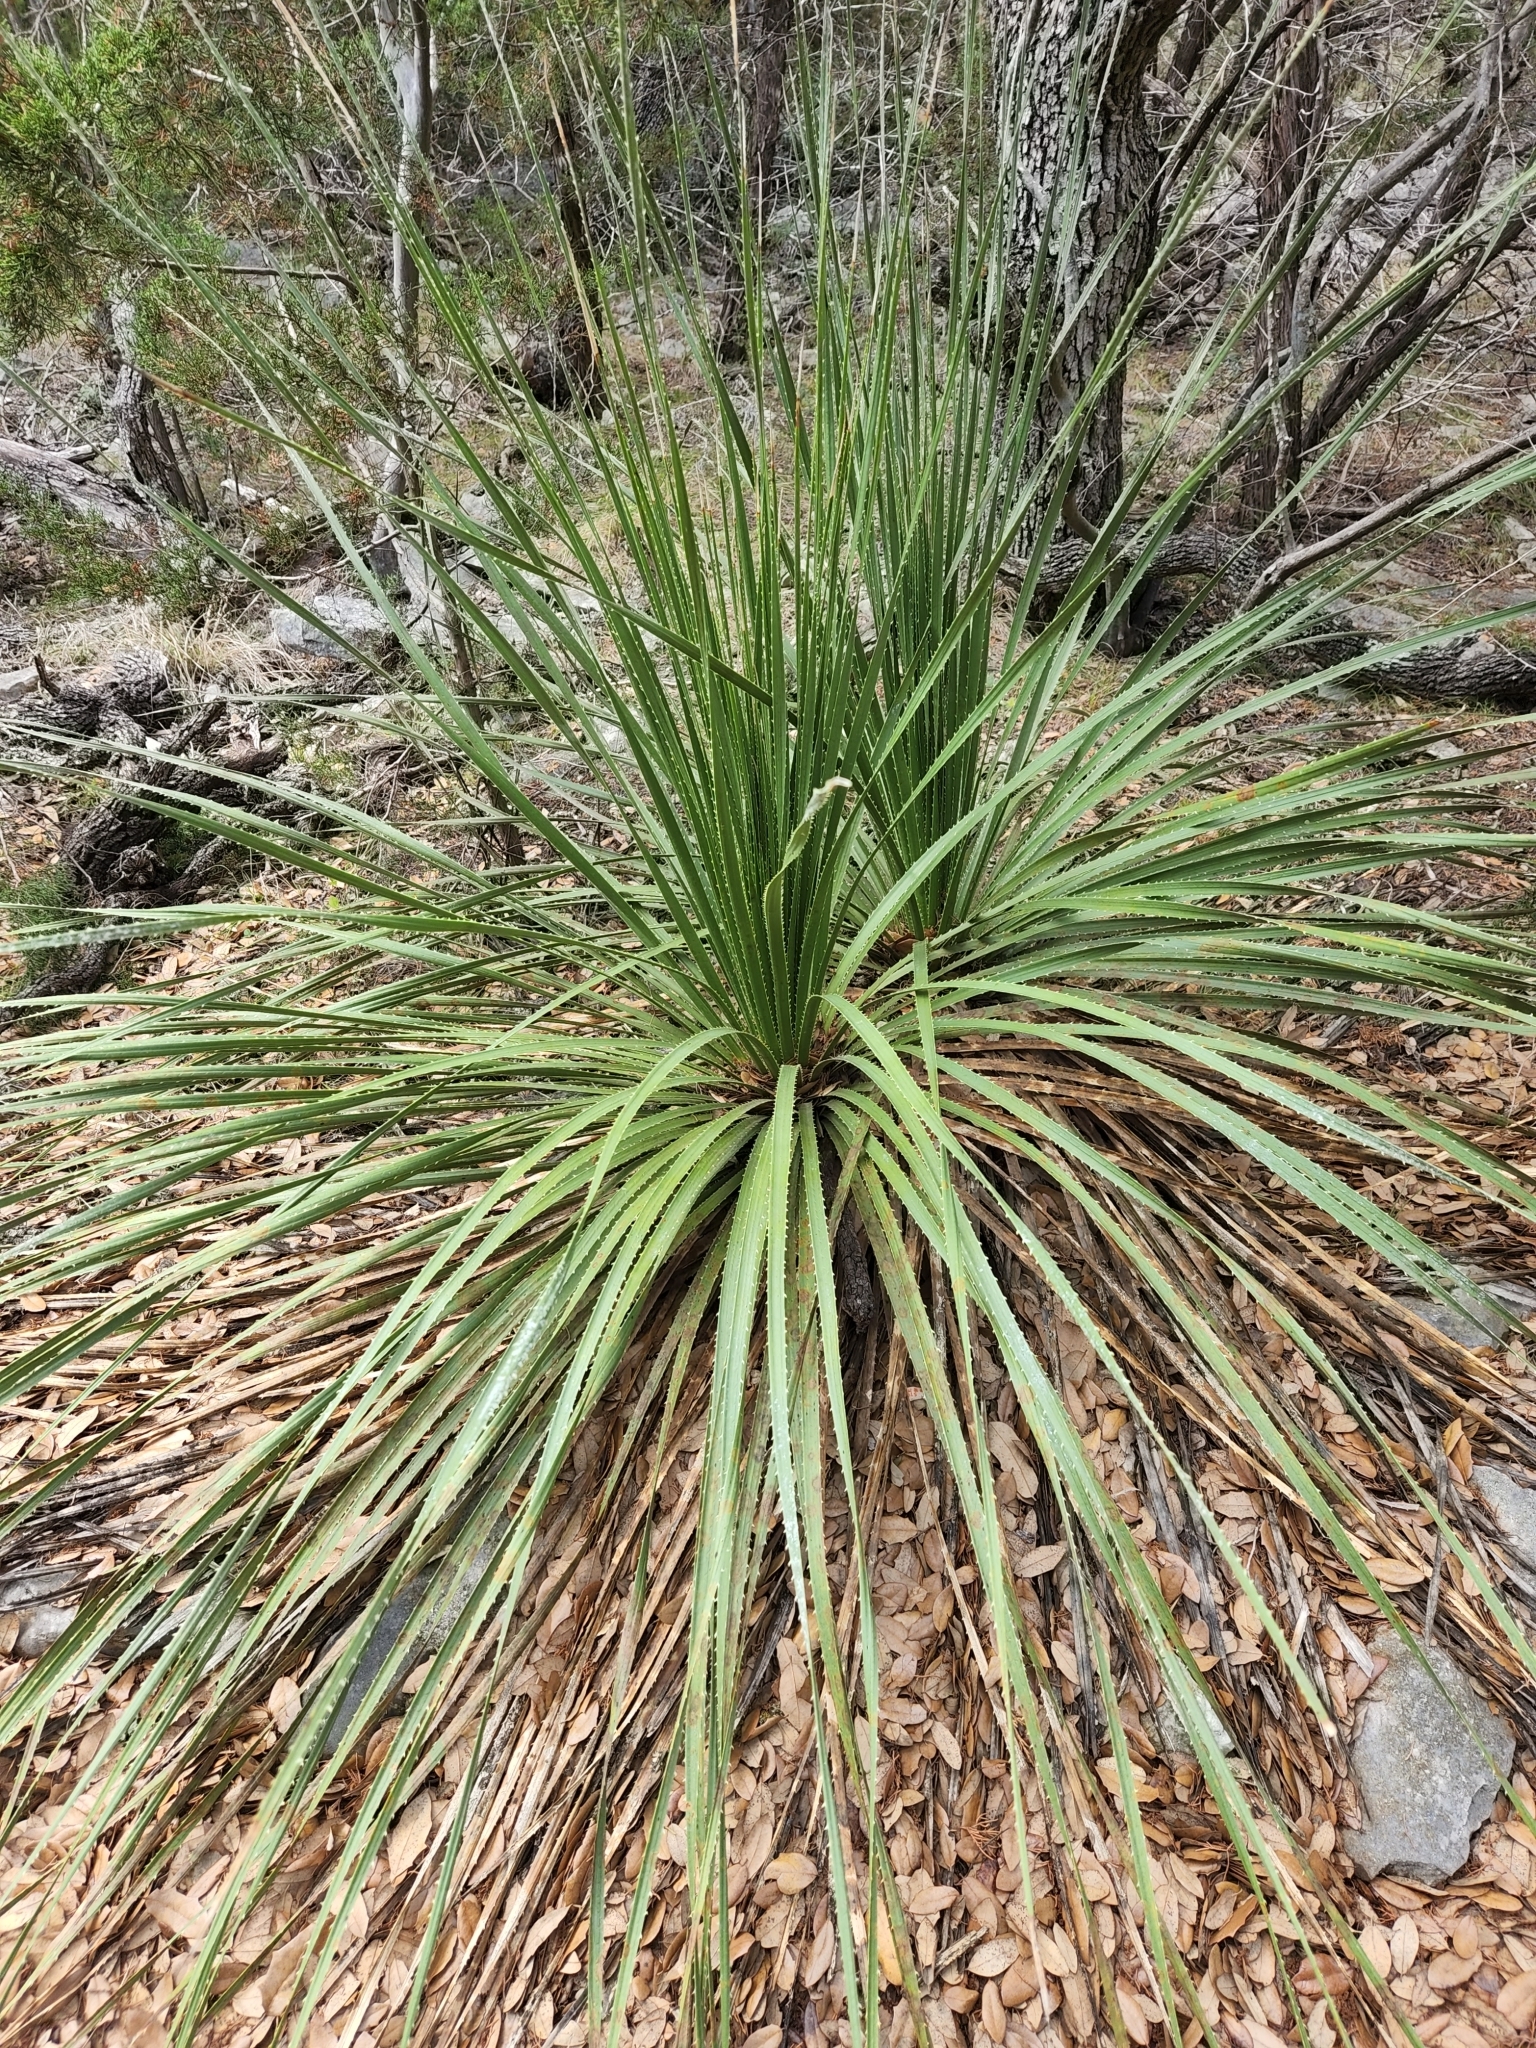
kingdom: Plantae
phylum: Tracheophyta
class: Liliopsida
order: Asparagales
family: Asparagaceae
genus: Dasylirion
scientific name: Dasylirion texanum
